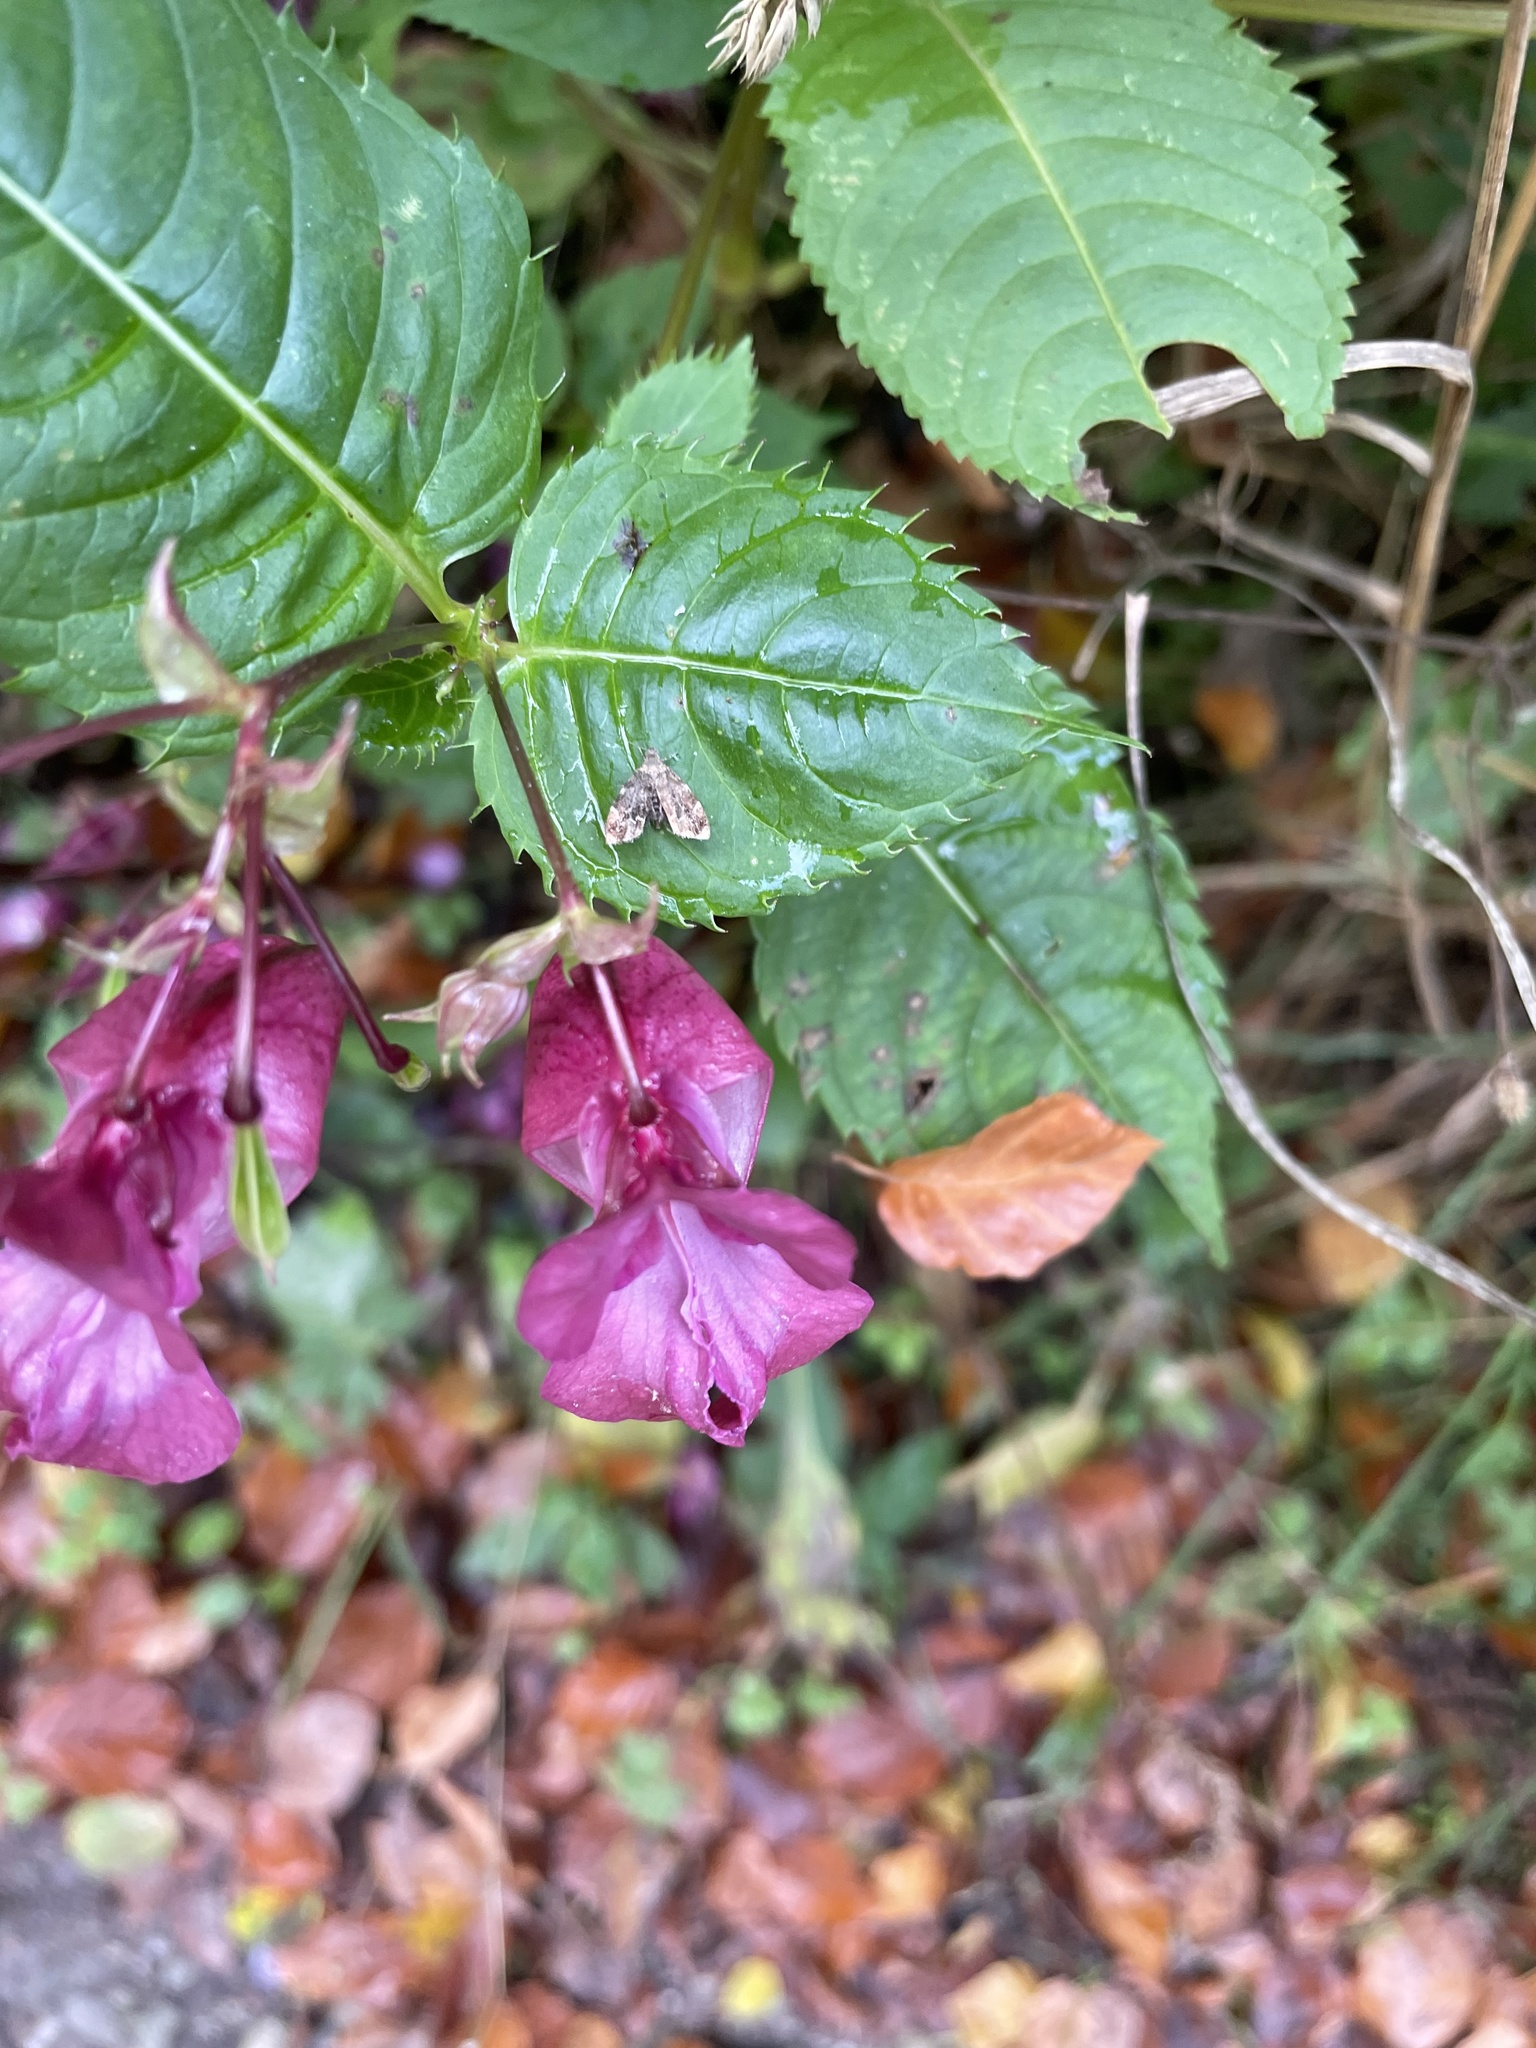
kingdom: Plantae
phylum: Tracheophyta
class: Magnoliopsida
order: Ericales
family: Balsaminaceae
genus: Impatiens
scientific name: Impatiens glandulifera
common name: Himalayan balsam
